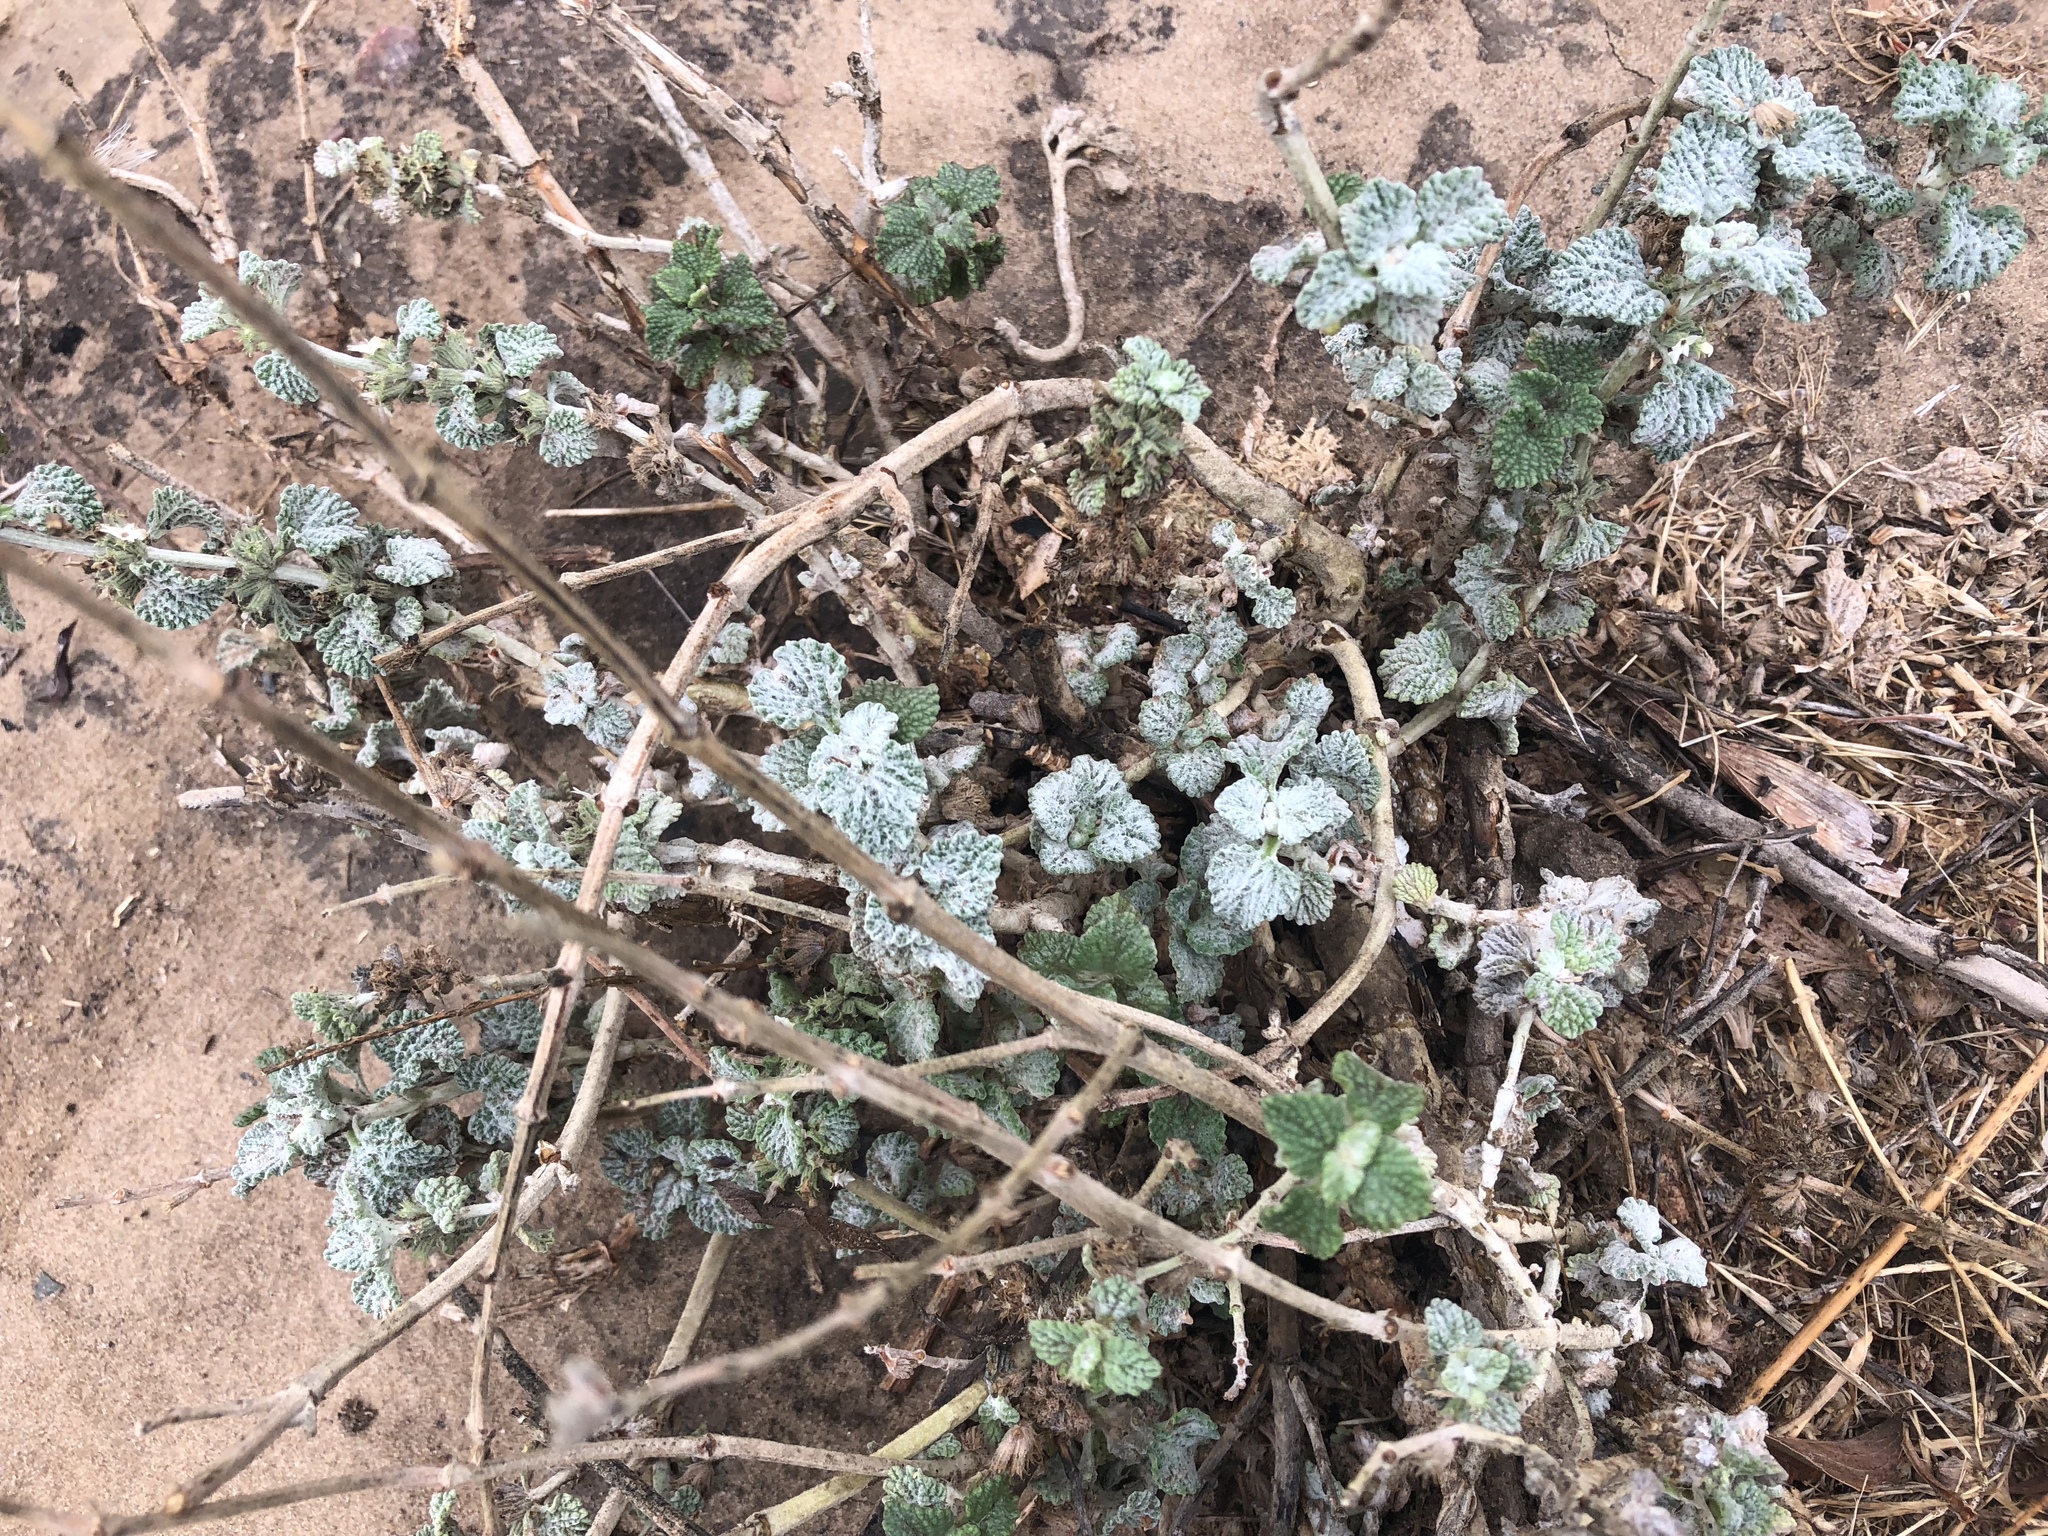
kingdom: Plantae
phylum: Tracheophyta
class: Magnoliopsida
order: Lamiales
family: Lamiaceae
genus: Marrubium
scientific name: Marrubium vulgare
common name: Horehound
